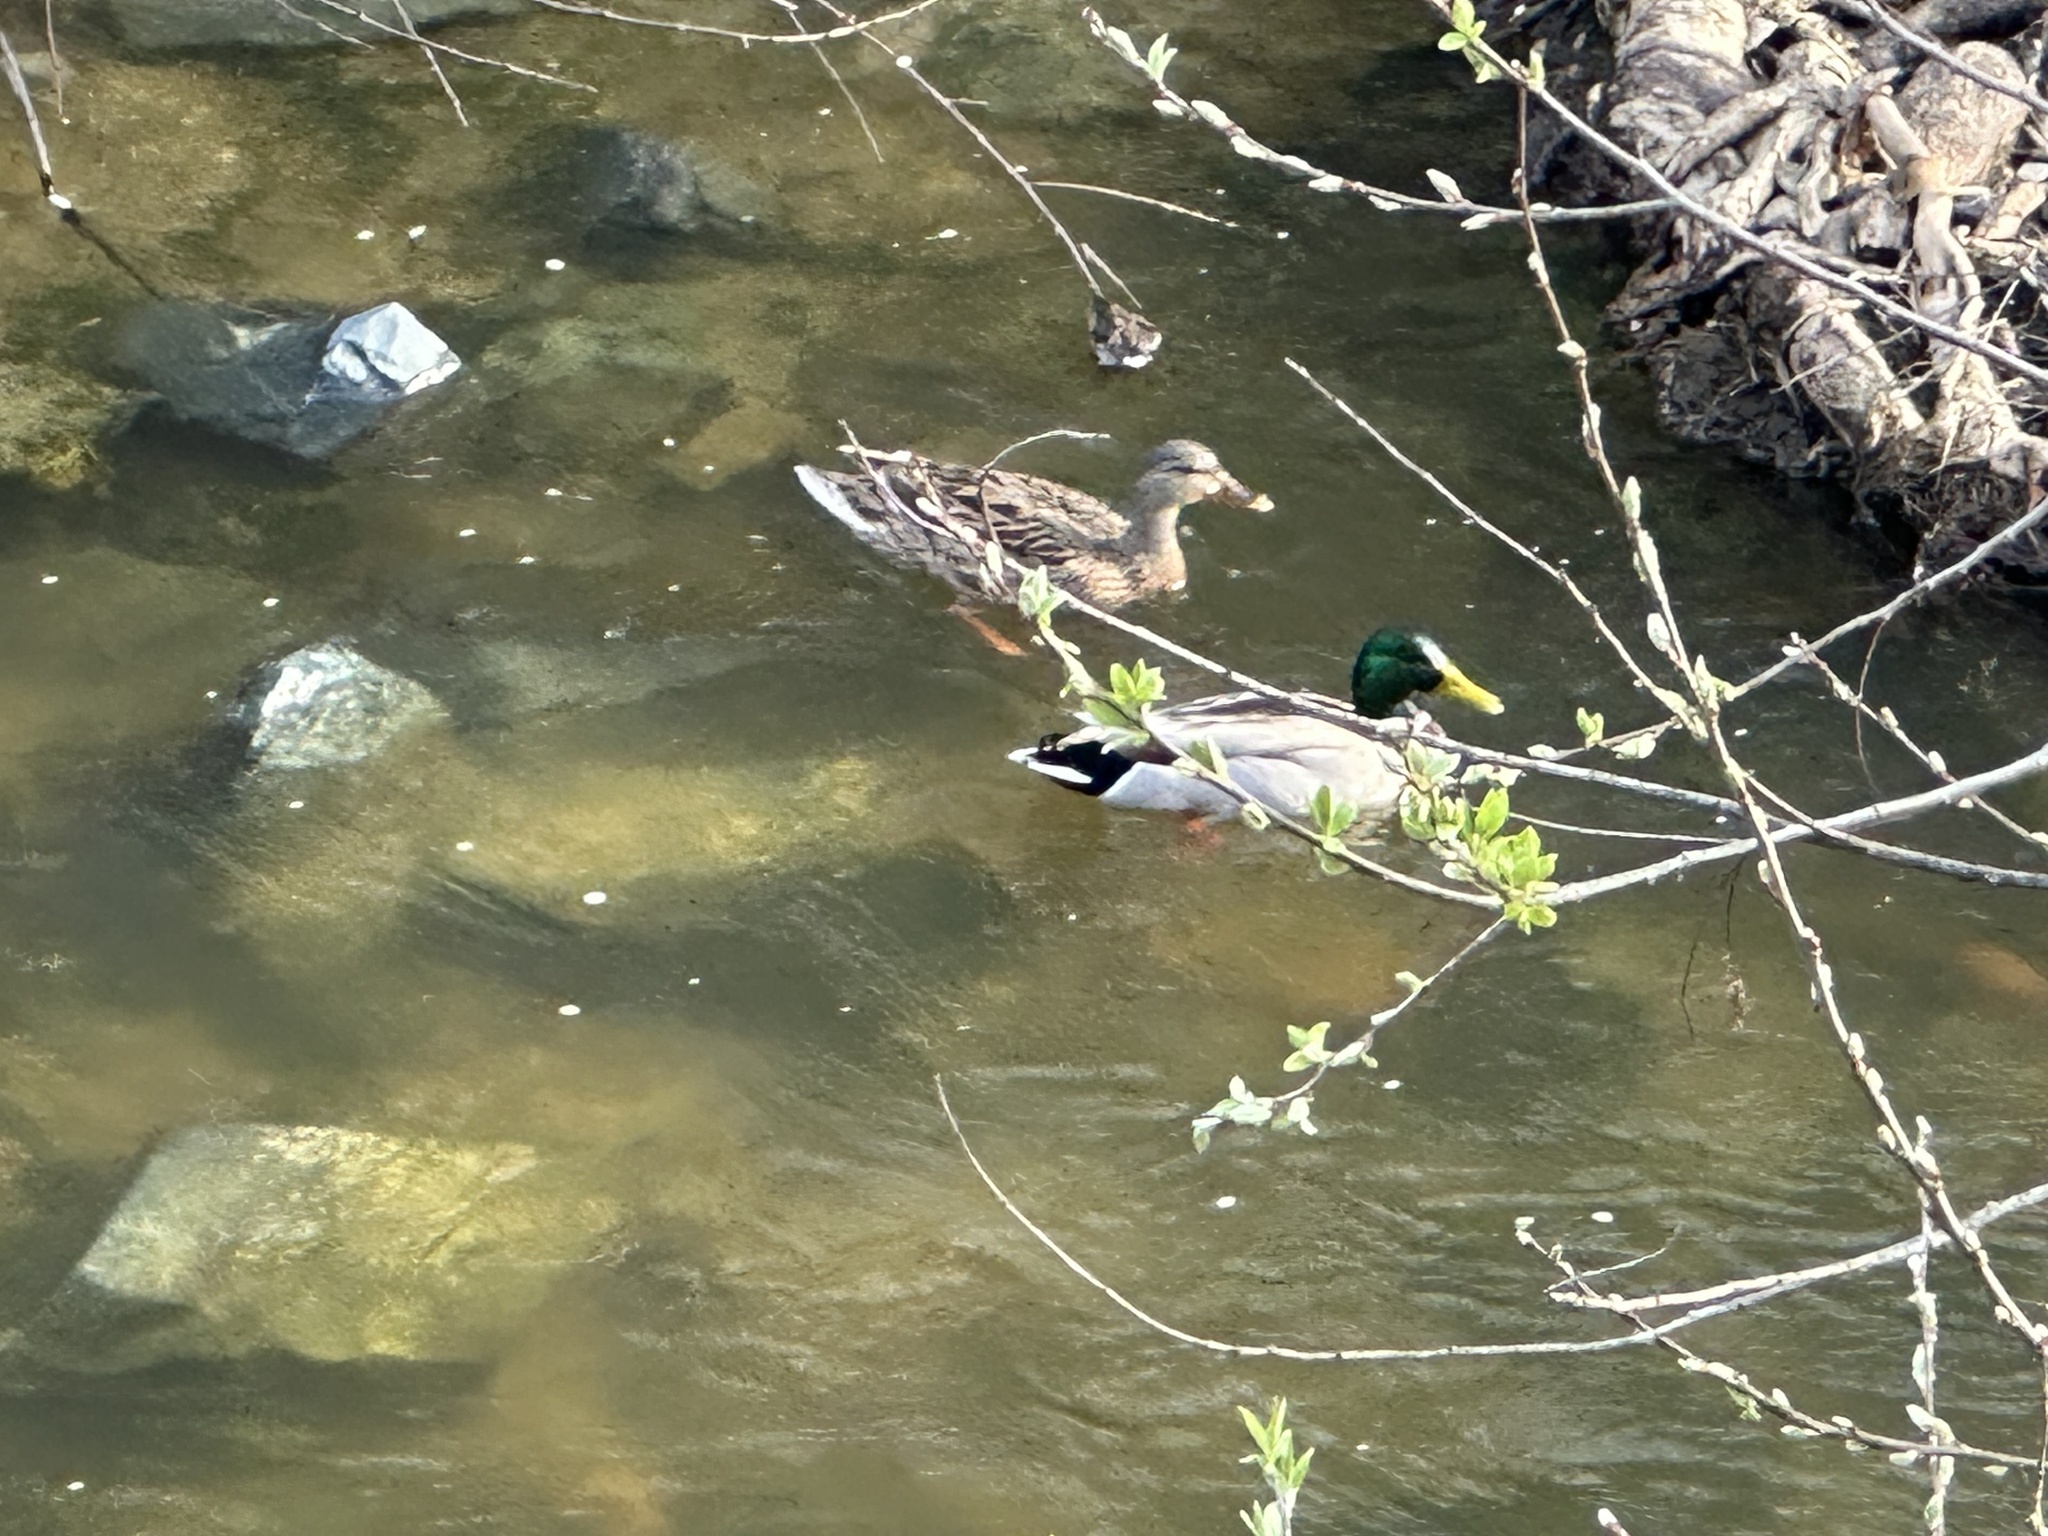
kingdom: Animalia
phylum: Chordata
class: Aves
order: Anseriformes
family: Anatidae
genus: Anas
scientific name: Anas platyrhynchos
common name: Mallard
